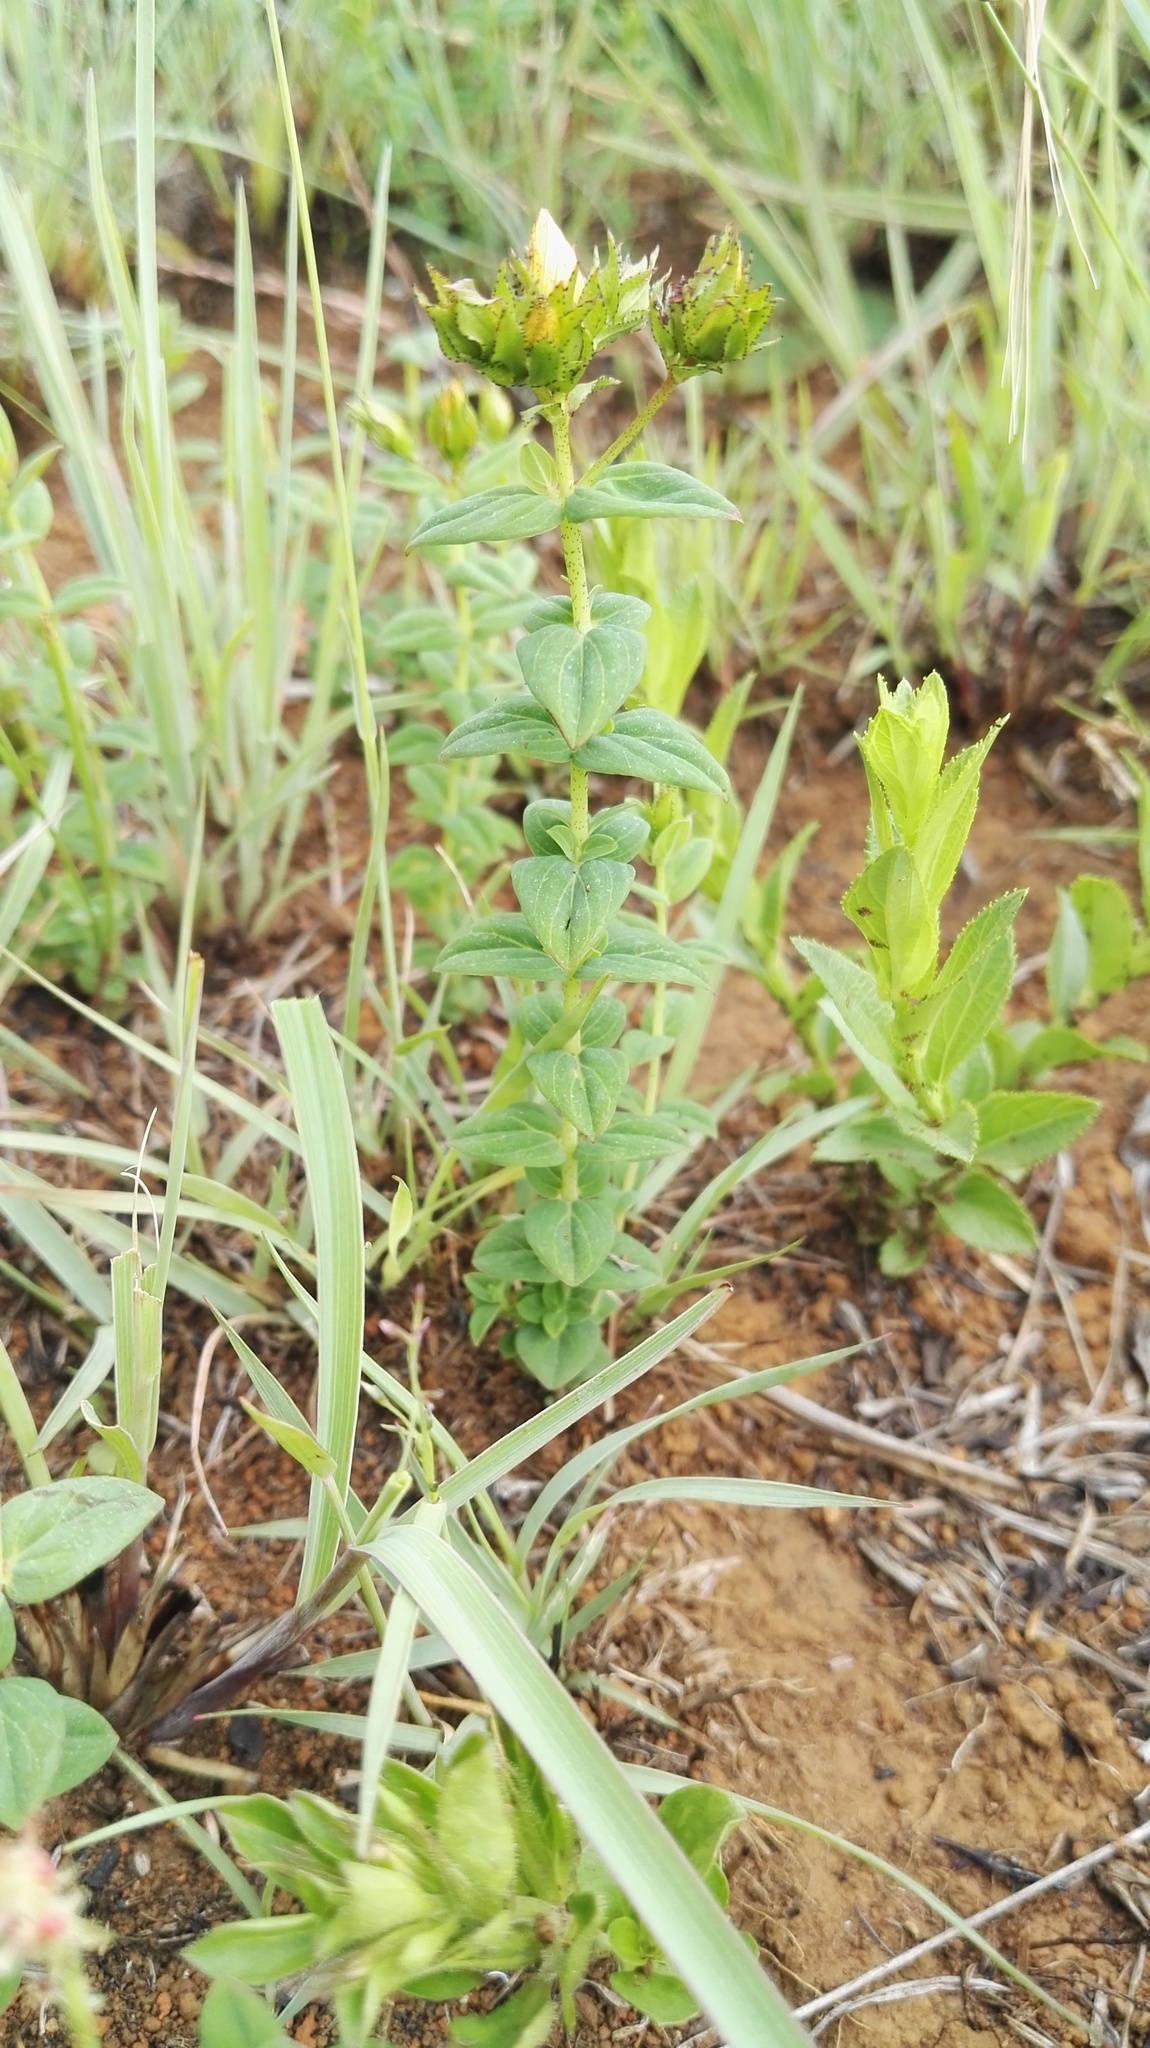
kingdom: Plantae
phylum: Tracheophyta
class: Magnoliopsida
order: Malpighiales
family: Hypericaceae
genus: Hypericum
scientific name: Hypericum aethiopicum
